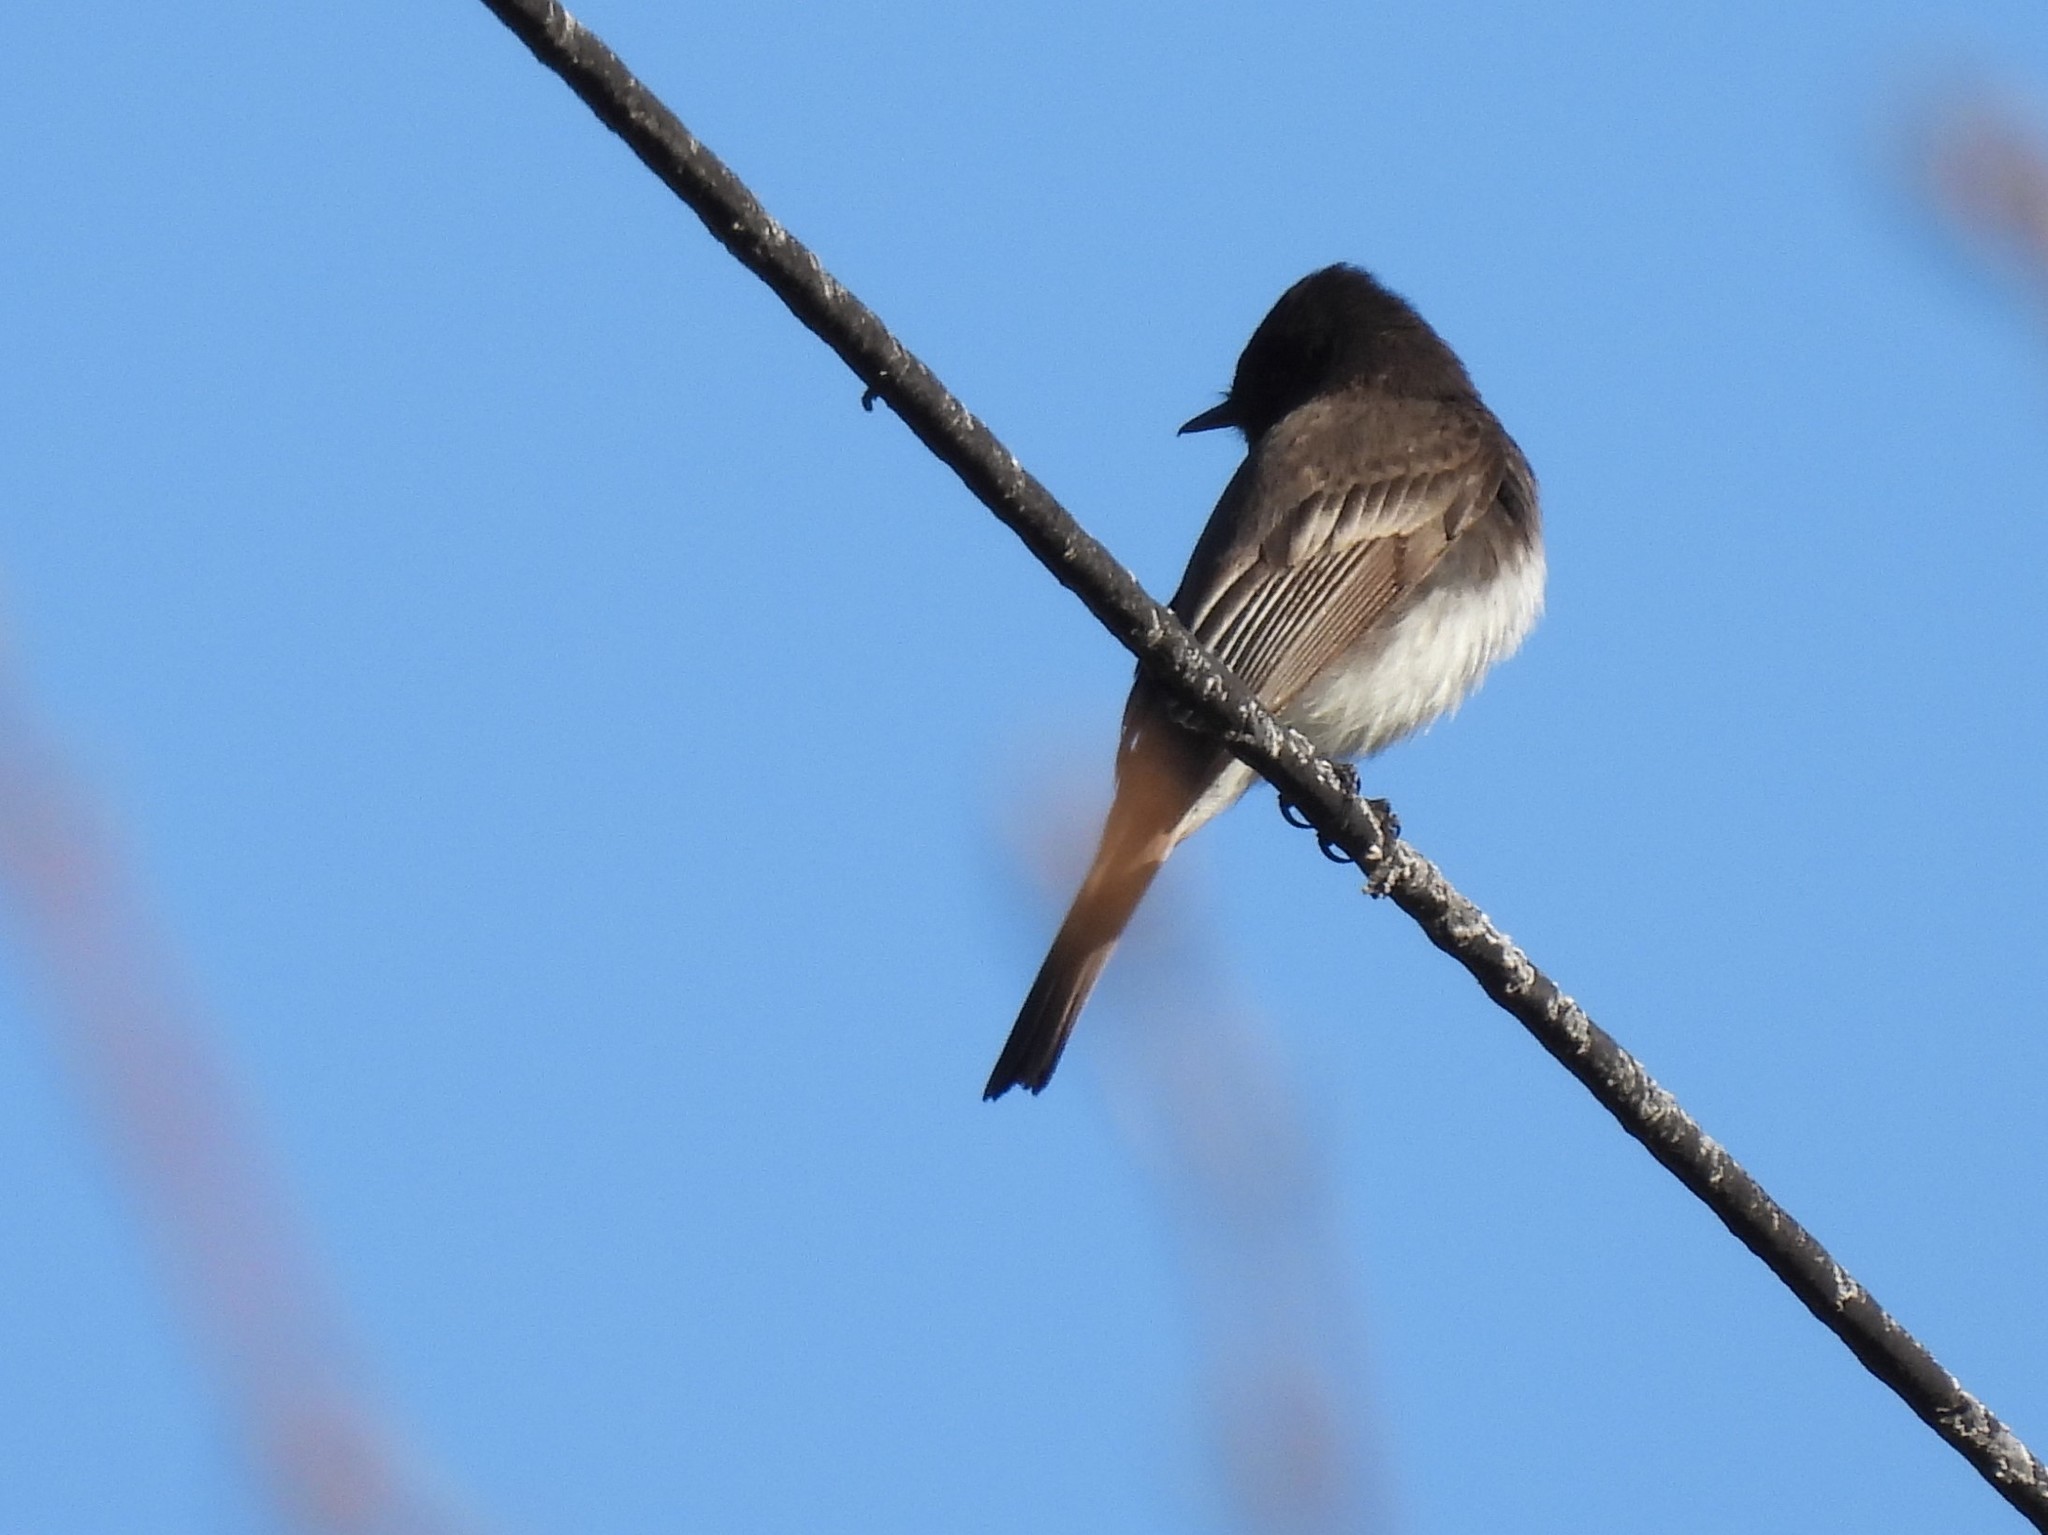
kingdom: Animalia
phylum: Chordata
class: Aves
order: Passeriformes
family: Tyrannidae
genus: Sayornis
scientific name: Sayornis nigricans
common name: Black phoebe
